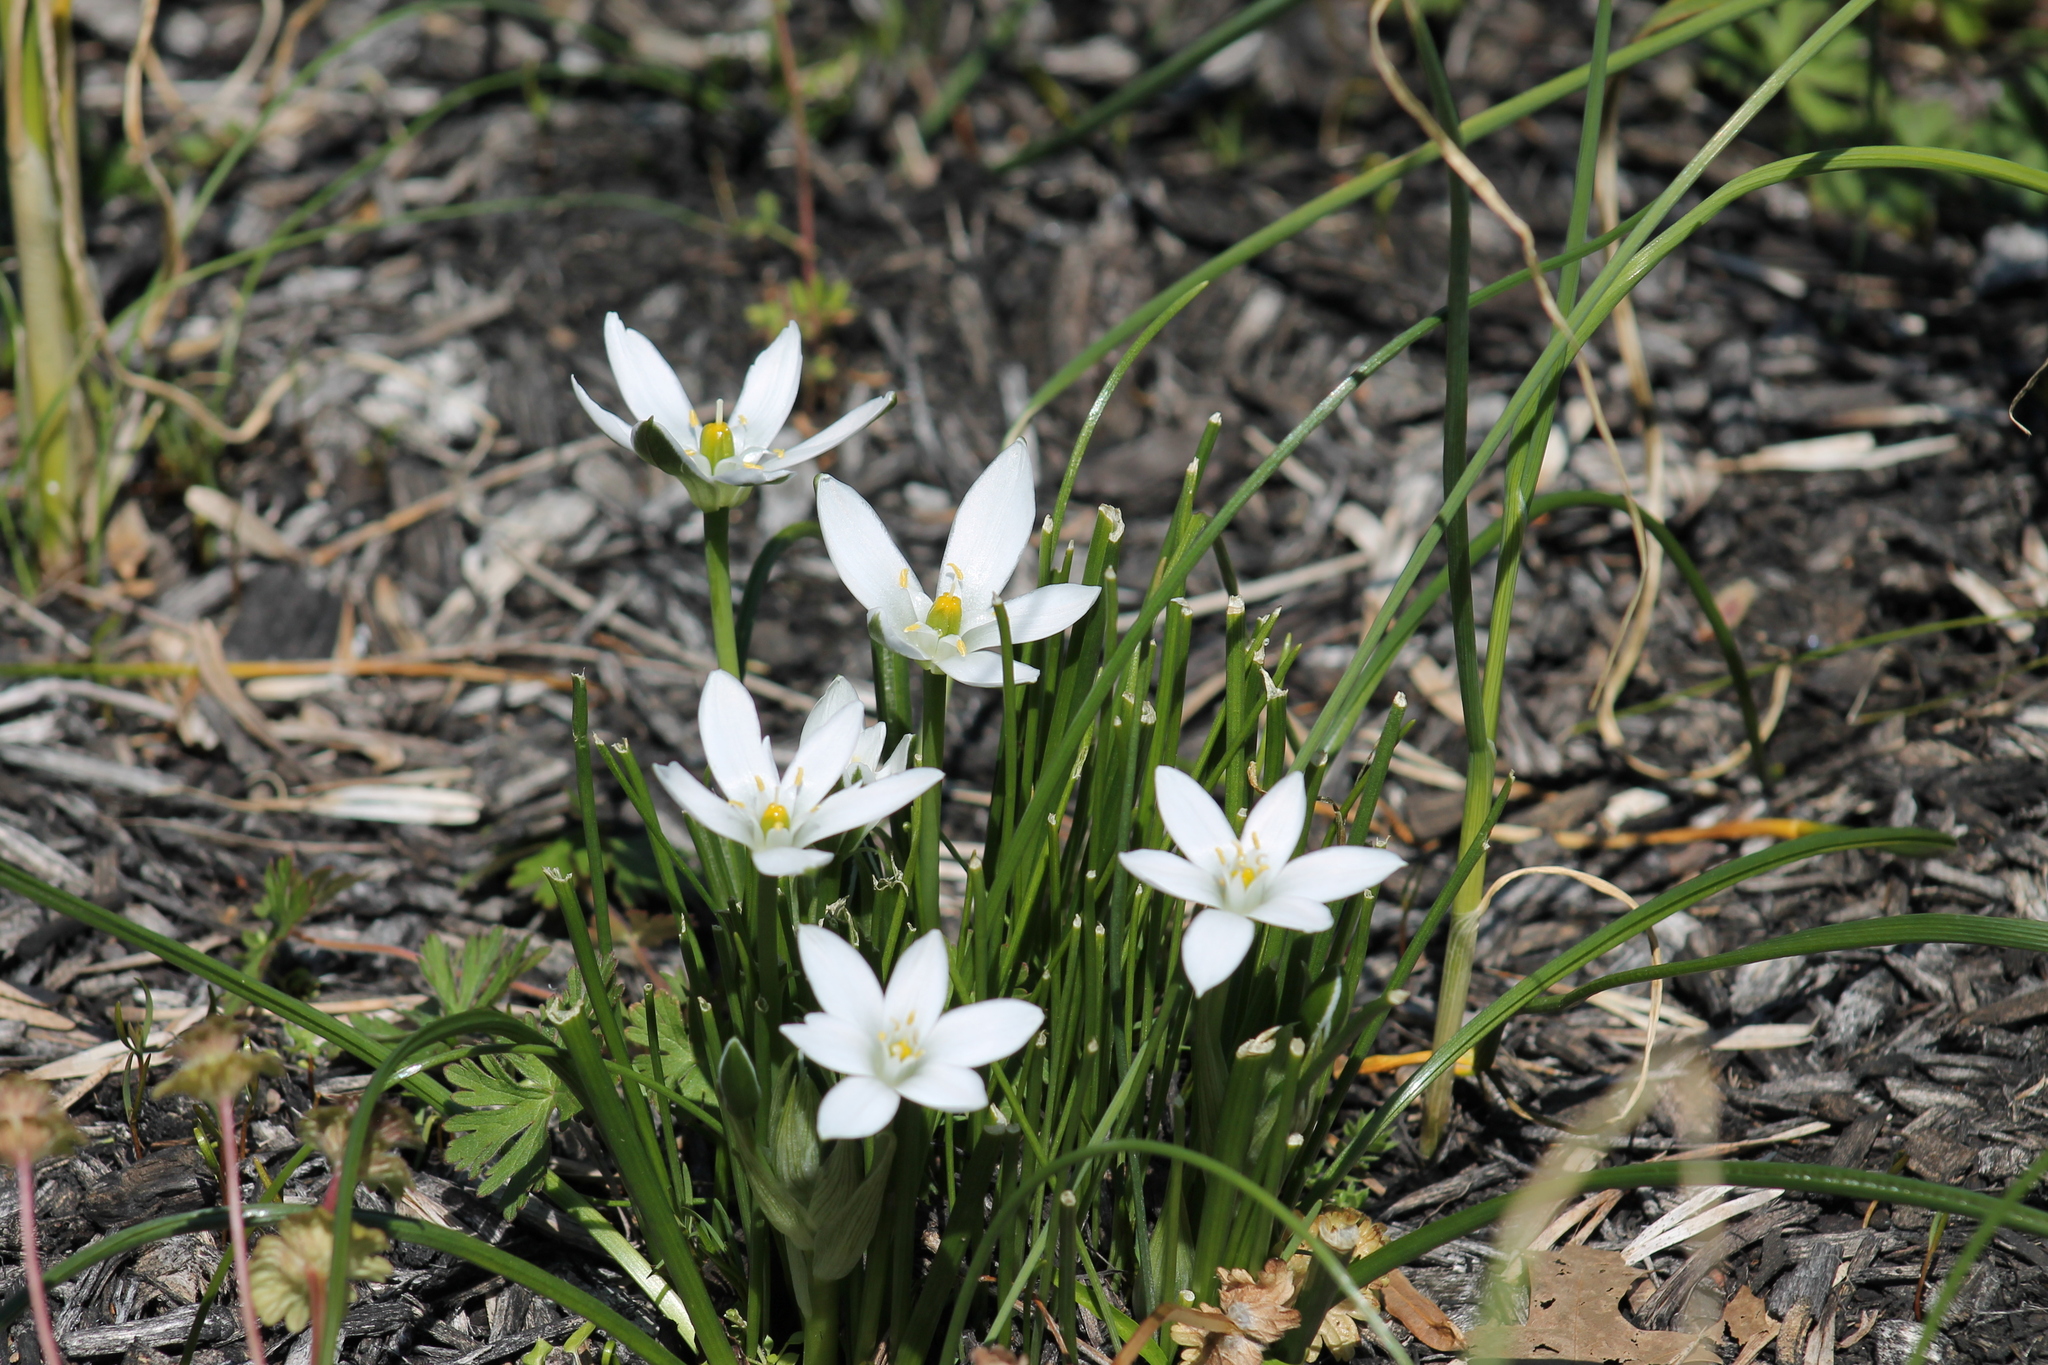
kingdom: Plantae
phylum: Tracheophyta
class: Liliopsida
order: Asparagales
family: Asparagaceae
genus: Ornithogalum
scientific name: Ornithogalum umbellatum
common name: Garden star-of-bethlehem
